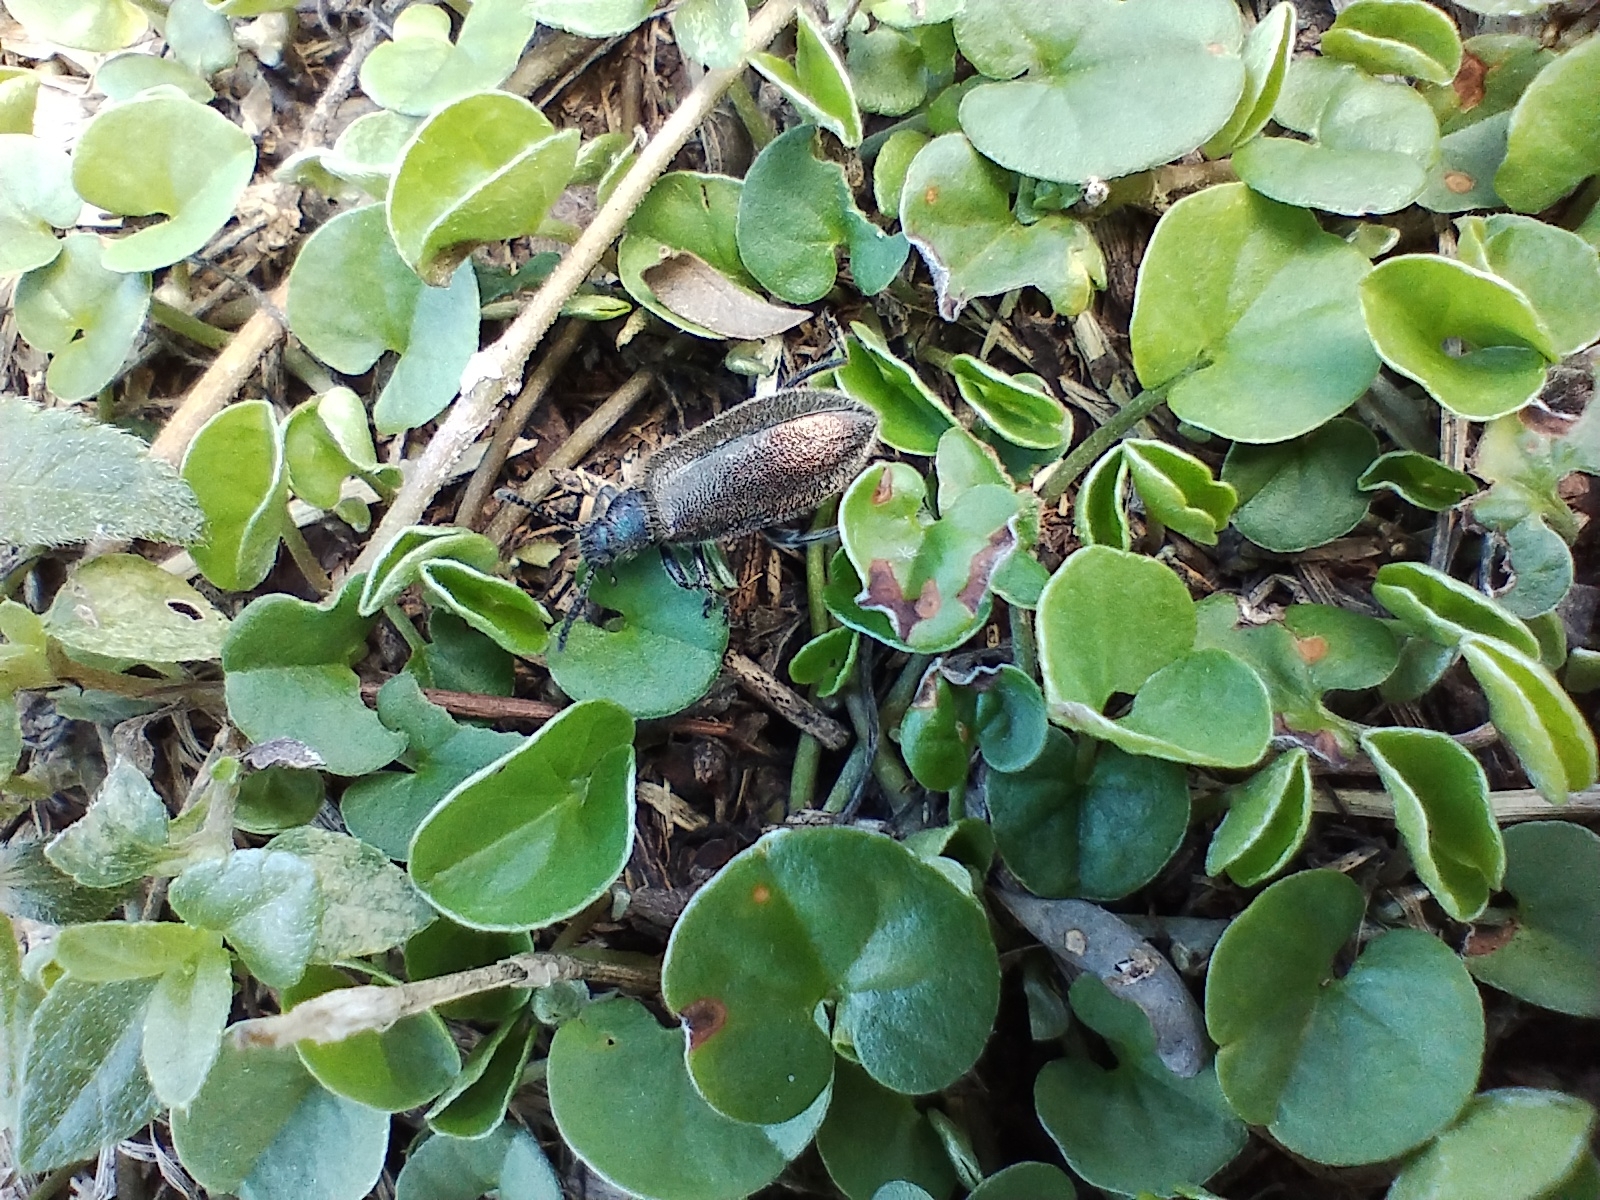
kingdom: Animalia
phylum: Arthropoda
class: Insecta
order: Coleoptera
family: Tenebrionidae
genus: Lagria
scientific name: Lagria villosa
